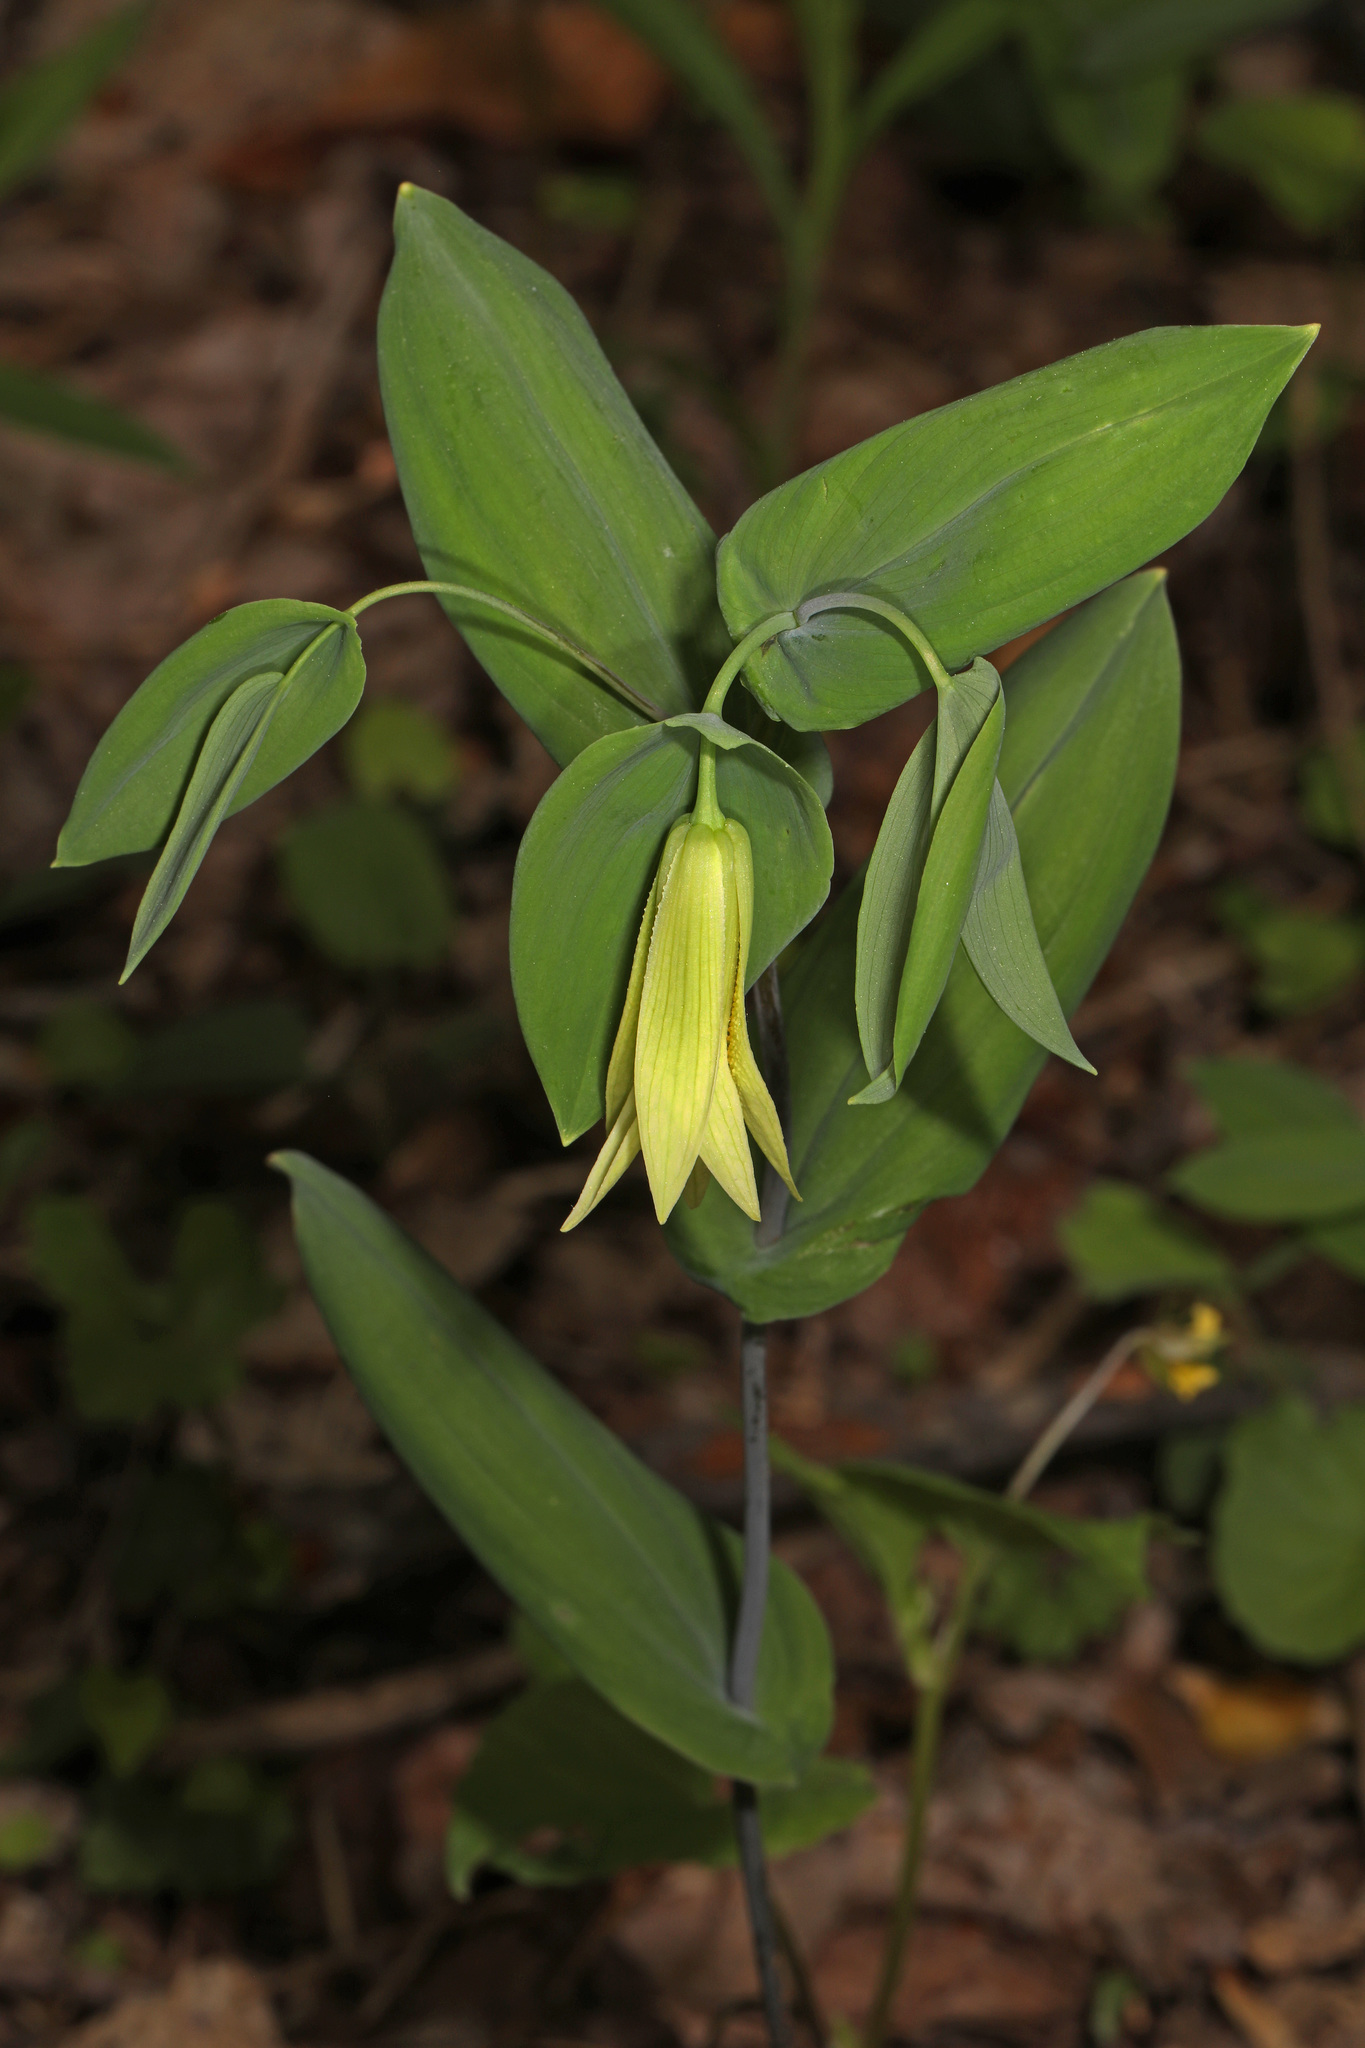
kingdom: Plantae
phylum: Tracheophyta
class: Liliopsida
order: Liliales
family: Colchicaceae
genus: Uvularia
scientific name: Uvularia perfoliata
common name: Perfoliate bellwort
